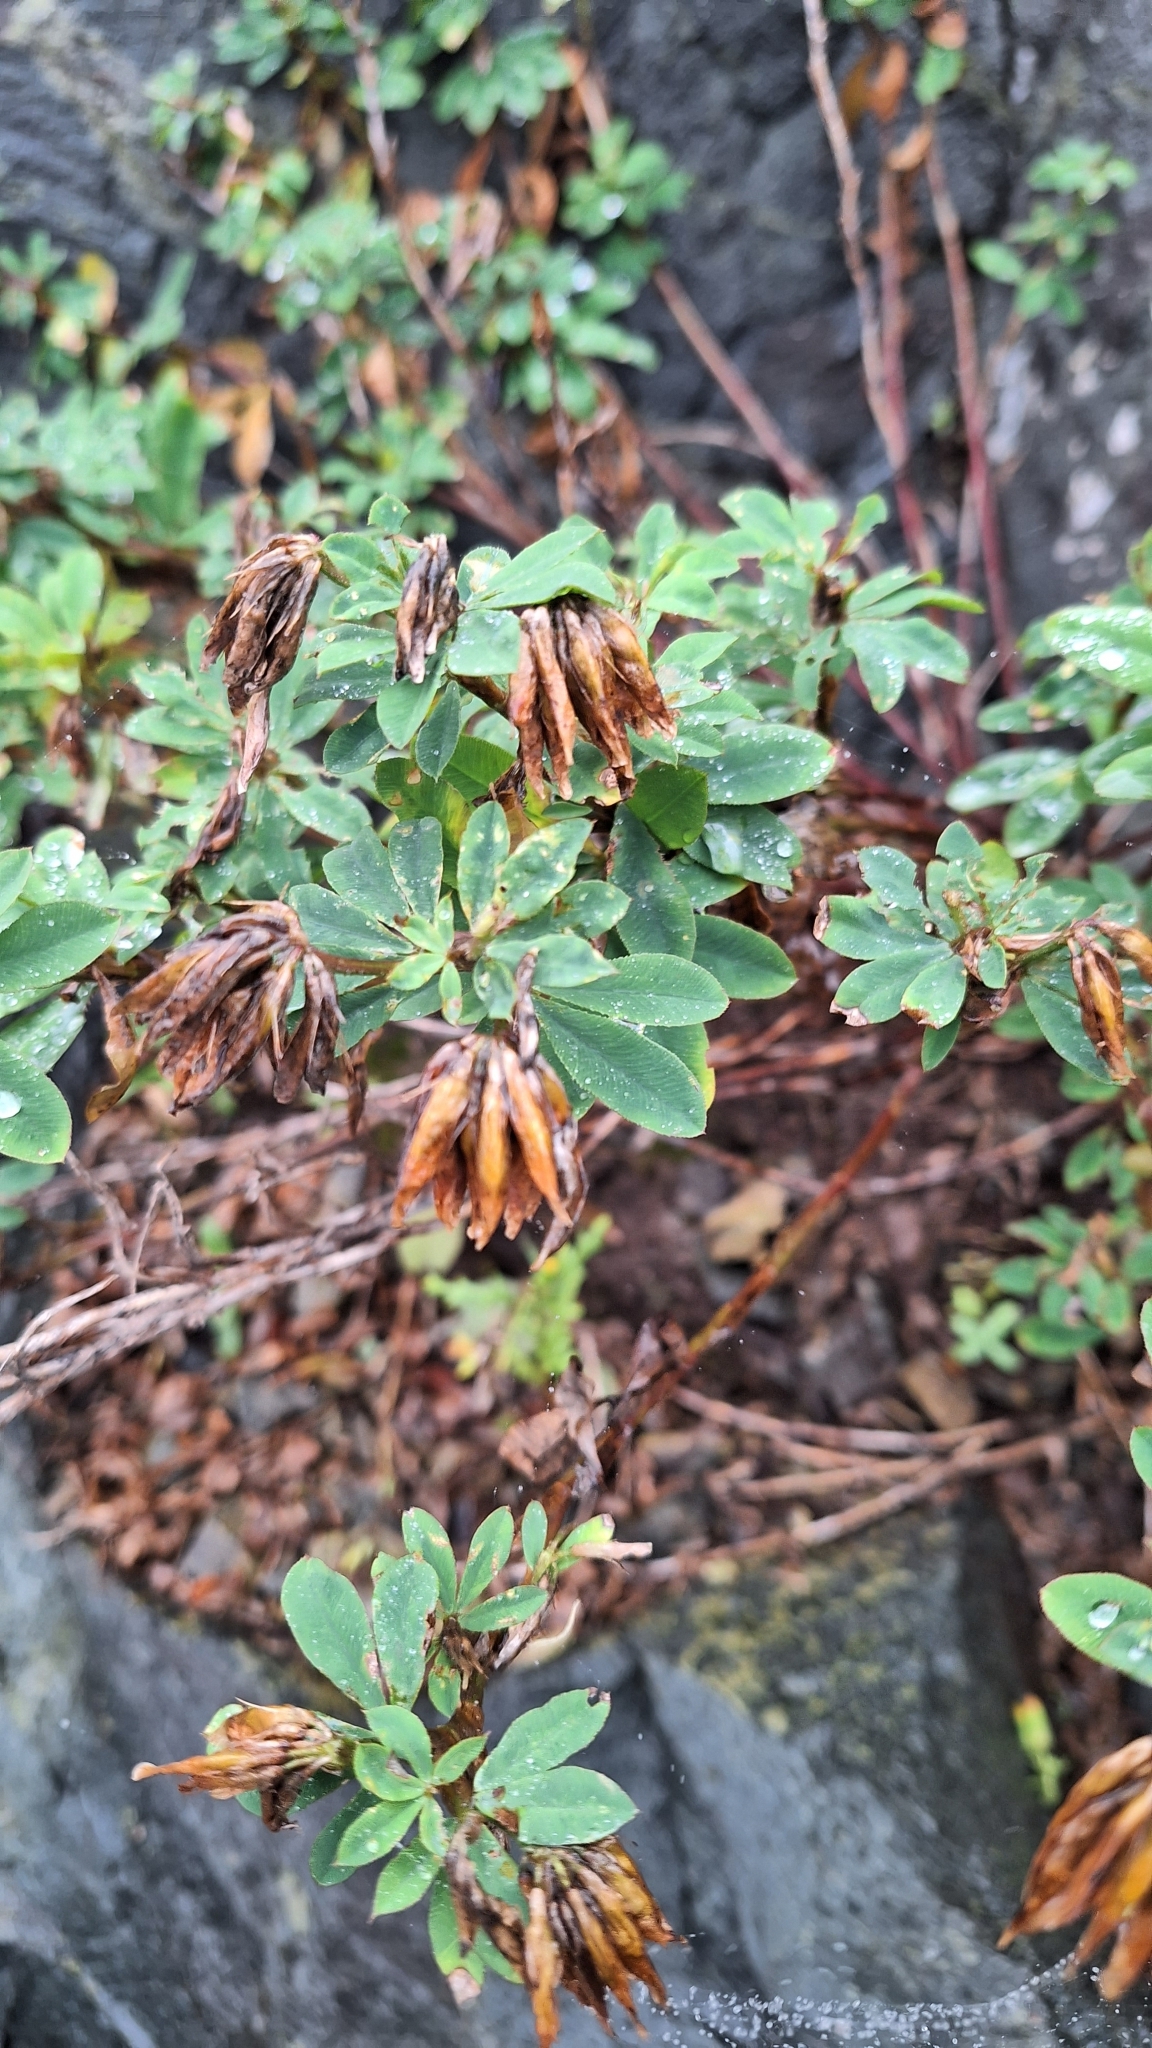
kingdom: Plantae
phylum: Tracheophyta
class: Magnoliopsida
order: Fabales
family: Fabaceae
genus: Trifolium
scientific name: Trifolium lupinaster
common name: Lupine clover
